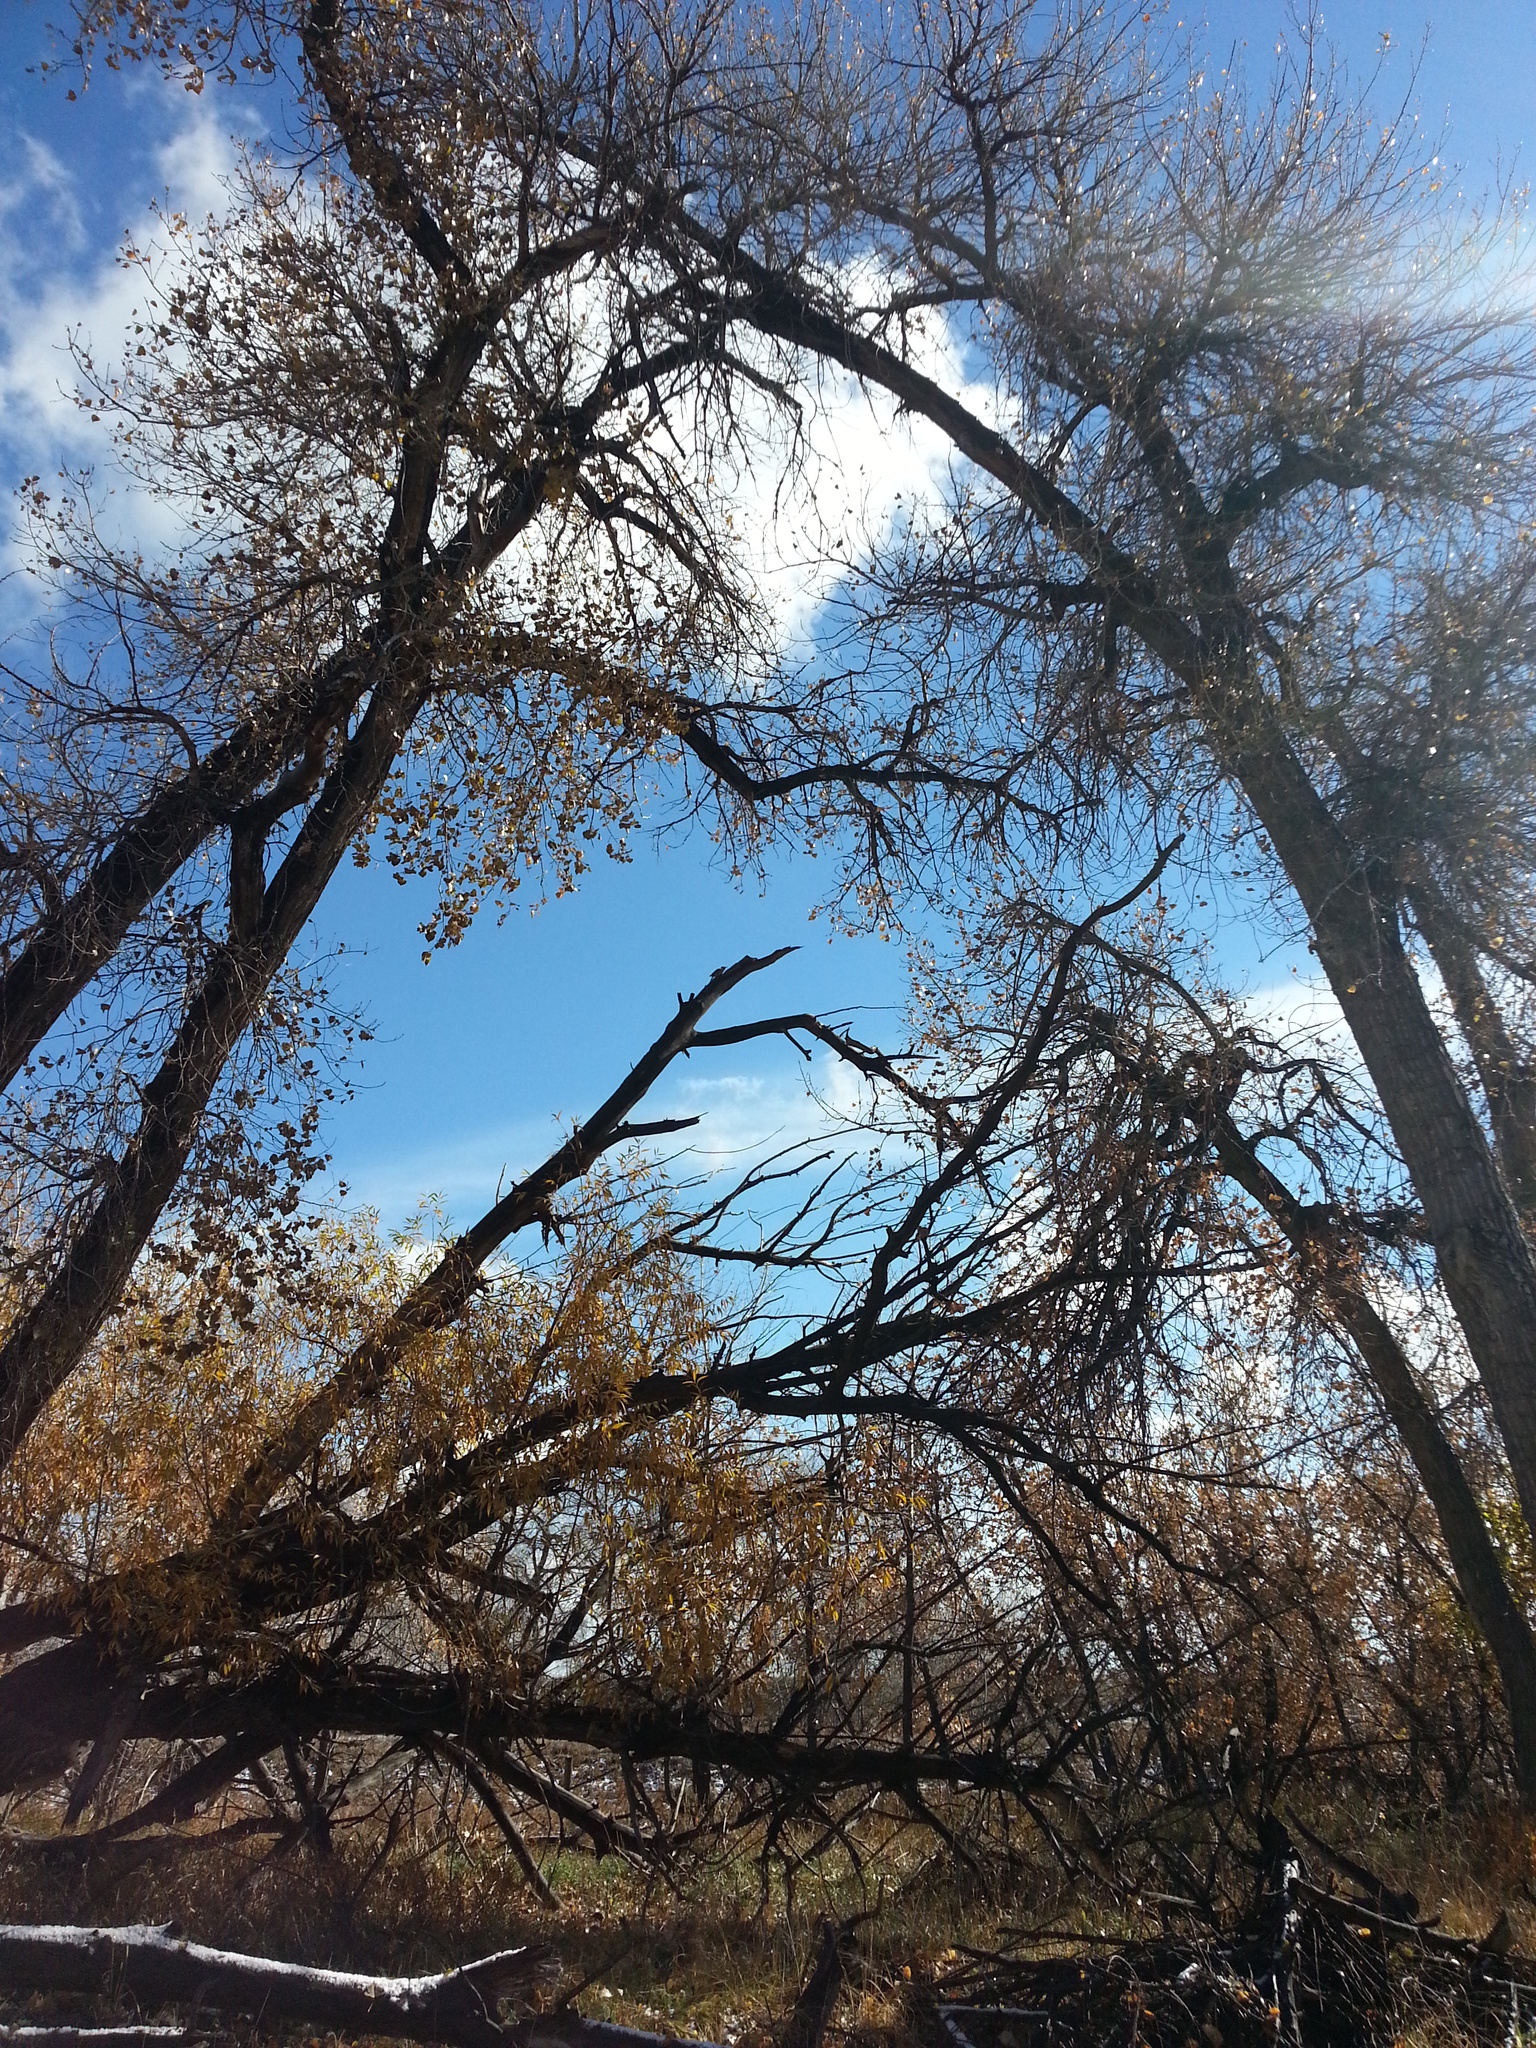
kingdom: Animalia
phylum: Chordata
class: Aves
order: Piciformes
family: Picidae
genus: Colaptes
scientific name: Colaptes auratus
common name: Northern flicker
